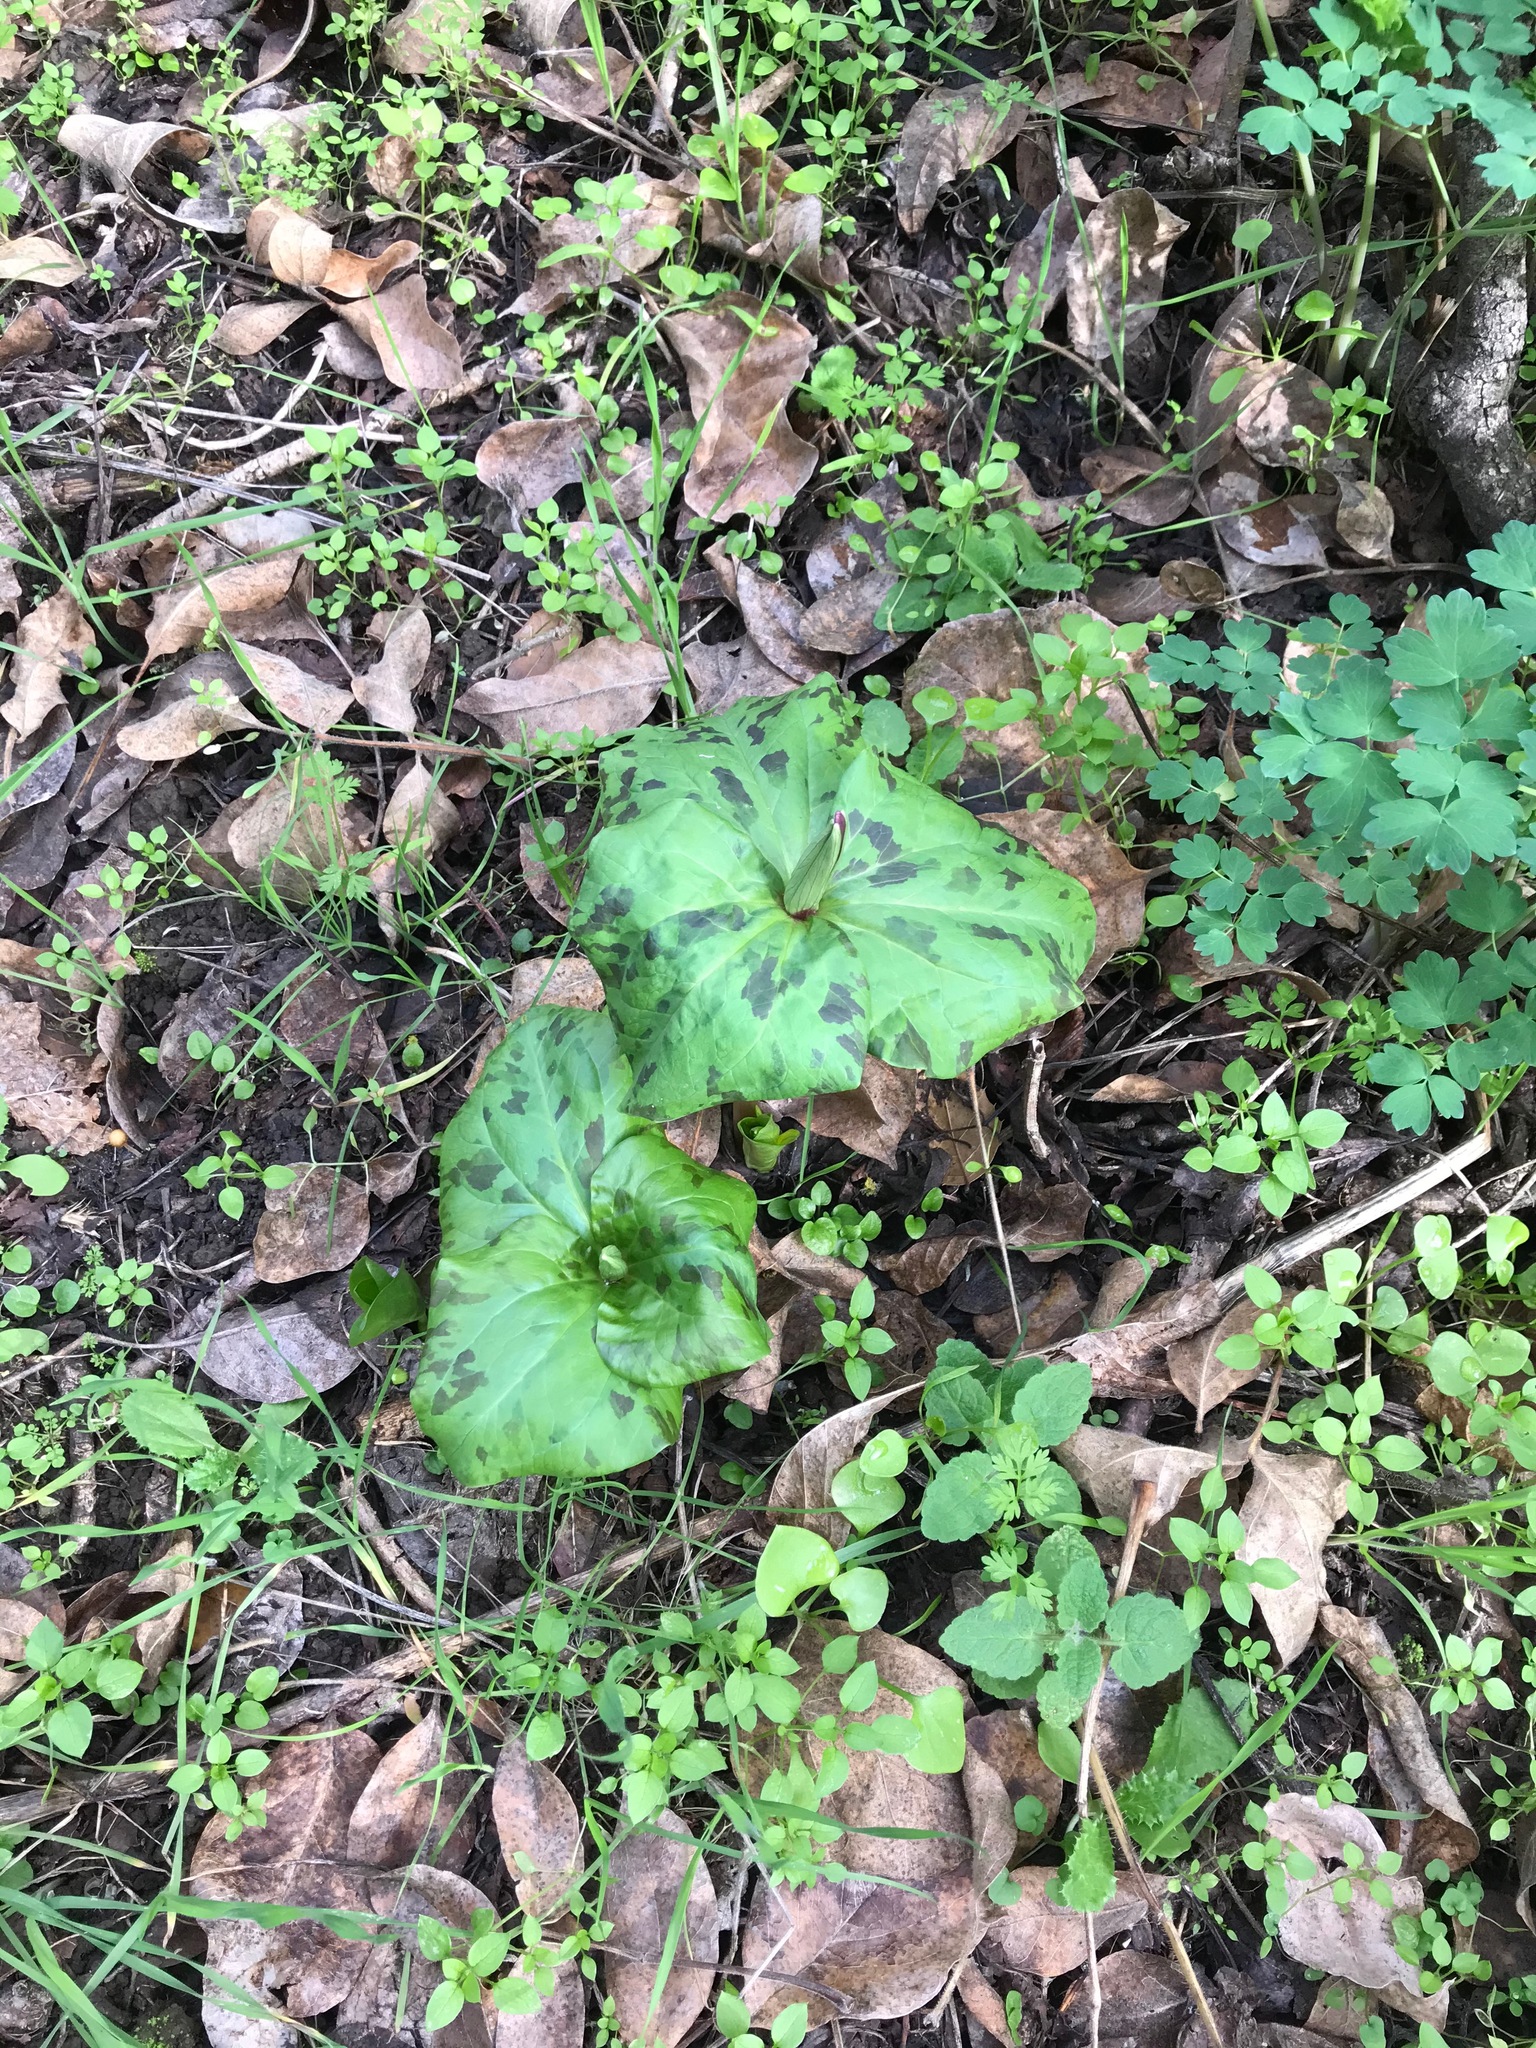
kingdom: Plantae
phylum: Tracheophyta
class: Liliopsida
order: Liliales
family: Melanthiaceae
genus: Trillium
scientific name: Trillium chloropetalum
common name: Giant trillium
